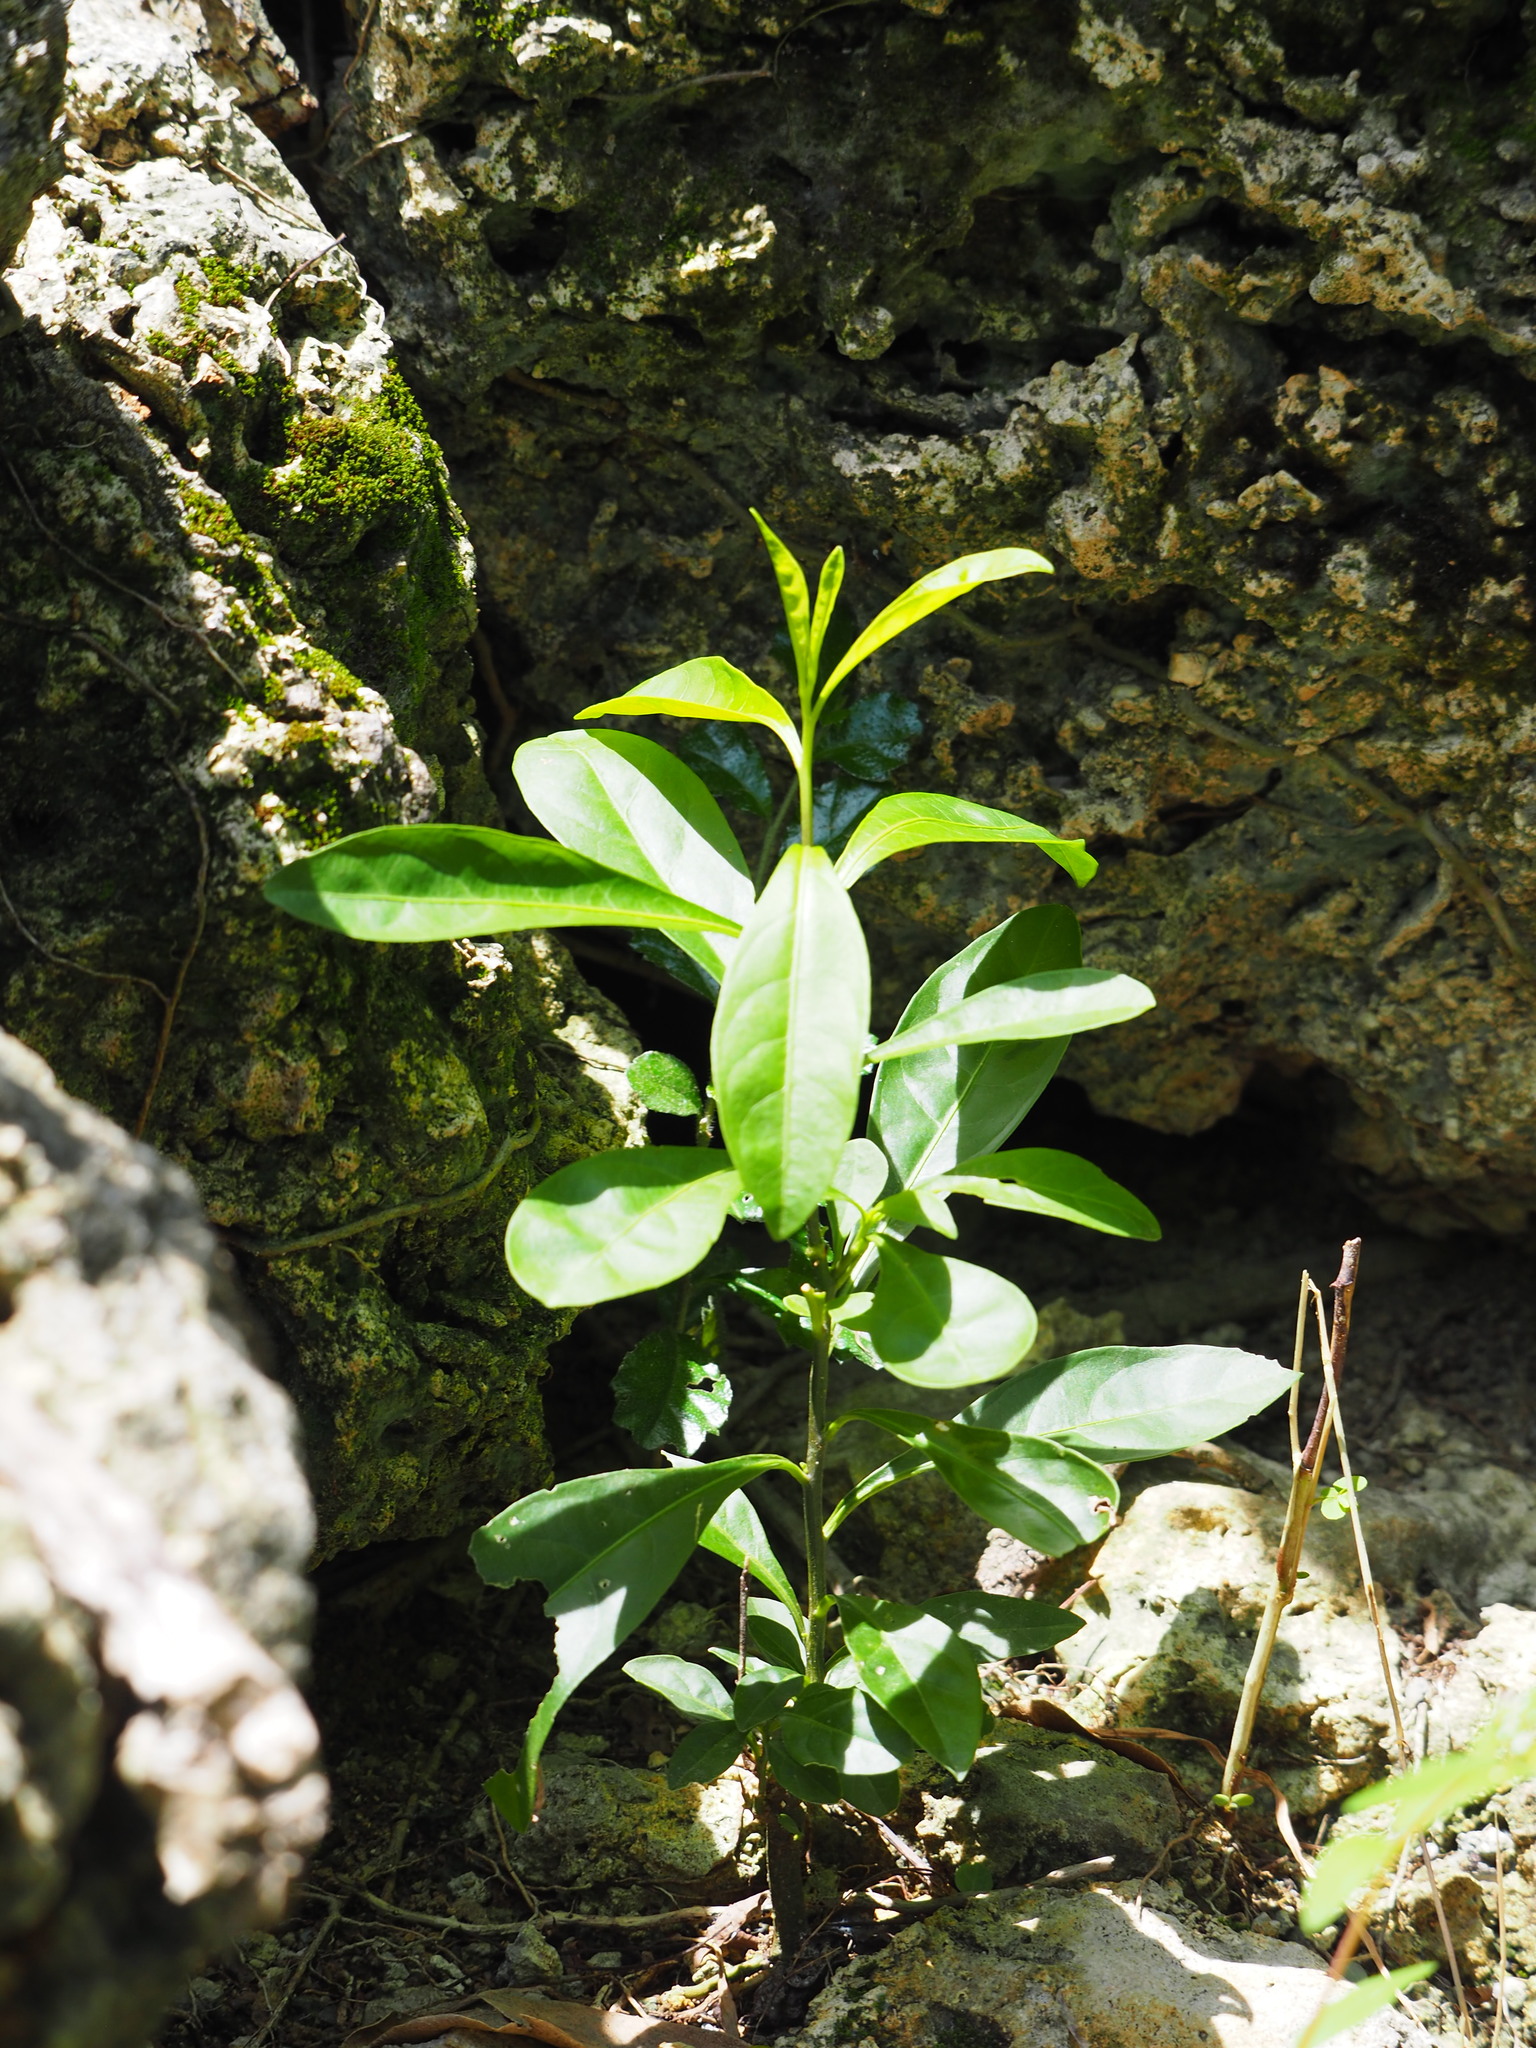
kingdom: Plantae
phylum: Tracheophyta
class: Magnoliopsida
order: Solanales
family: Solanaceae
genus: Solanum
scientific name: Solanum diphyllum
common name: Twoleaf nightshade
